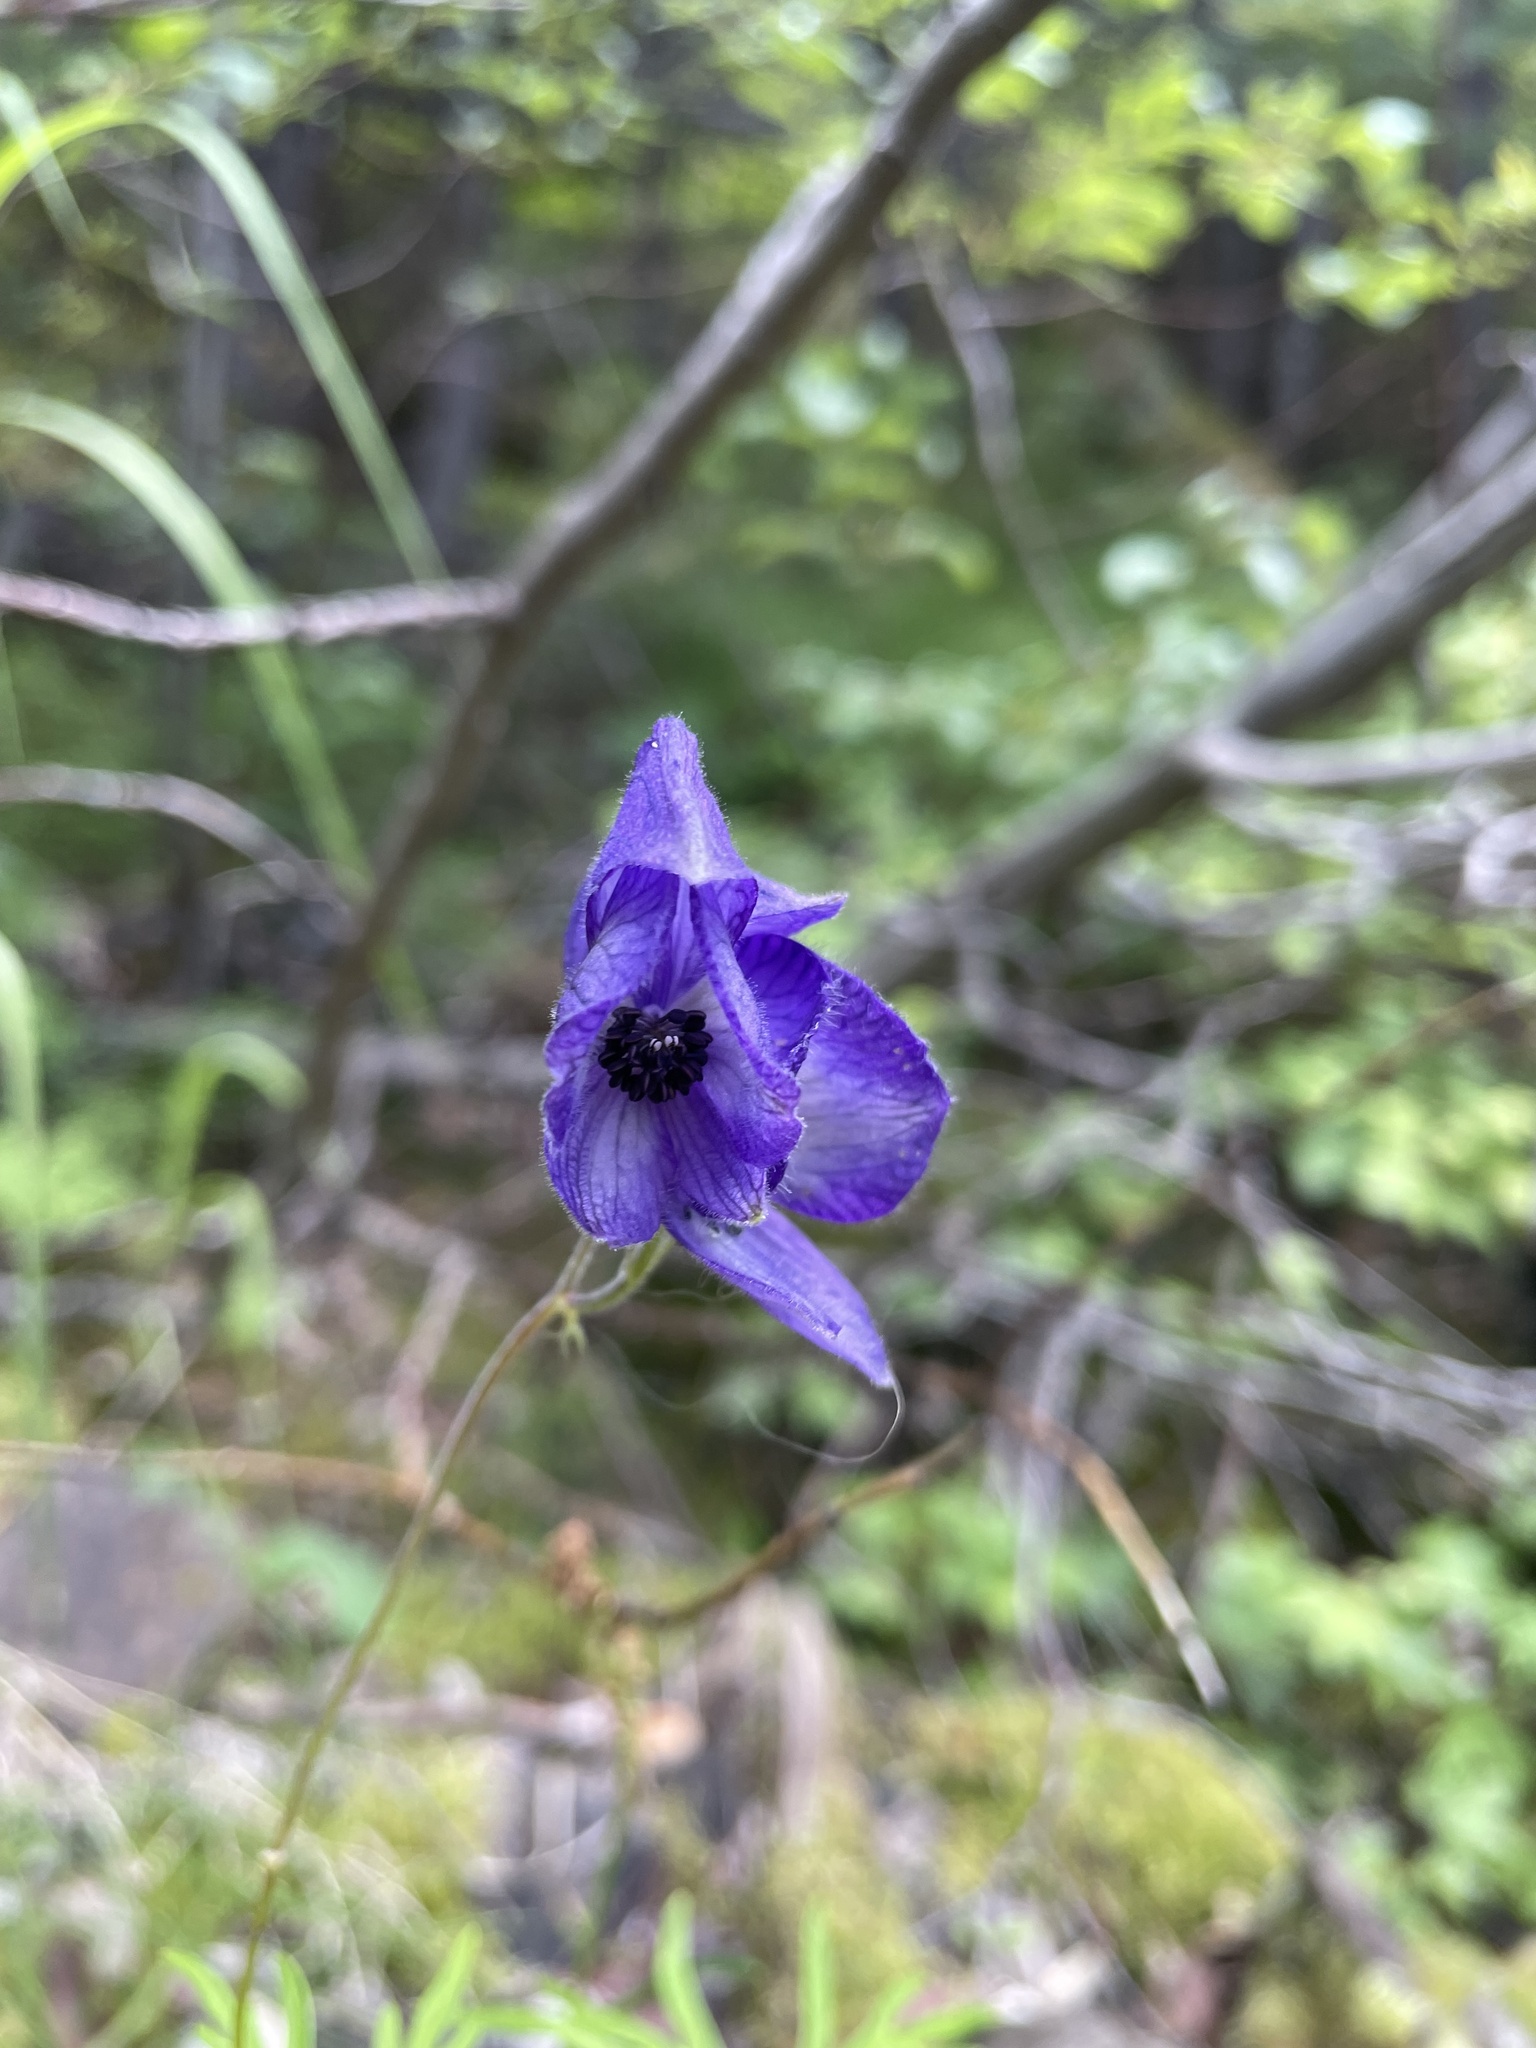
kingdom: Plantae
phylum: Tracheophyta
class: Magnoliopsida
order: Ranunculales
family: Ranunculaceae
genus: Aconitum
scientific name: Aconitum delphiniifolium
